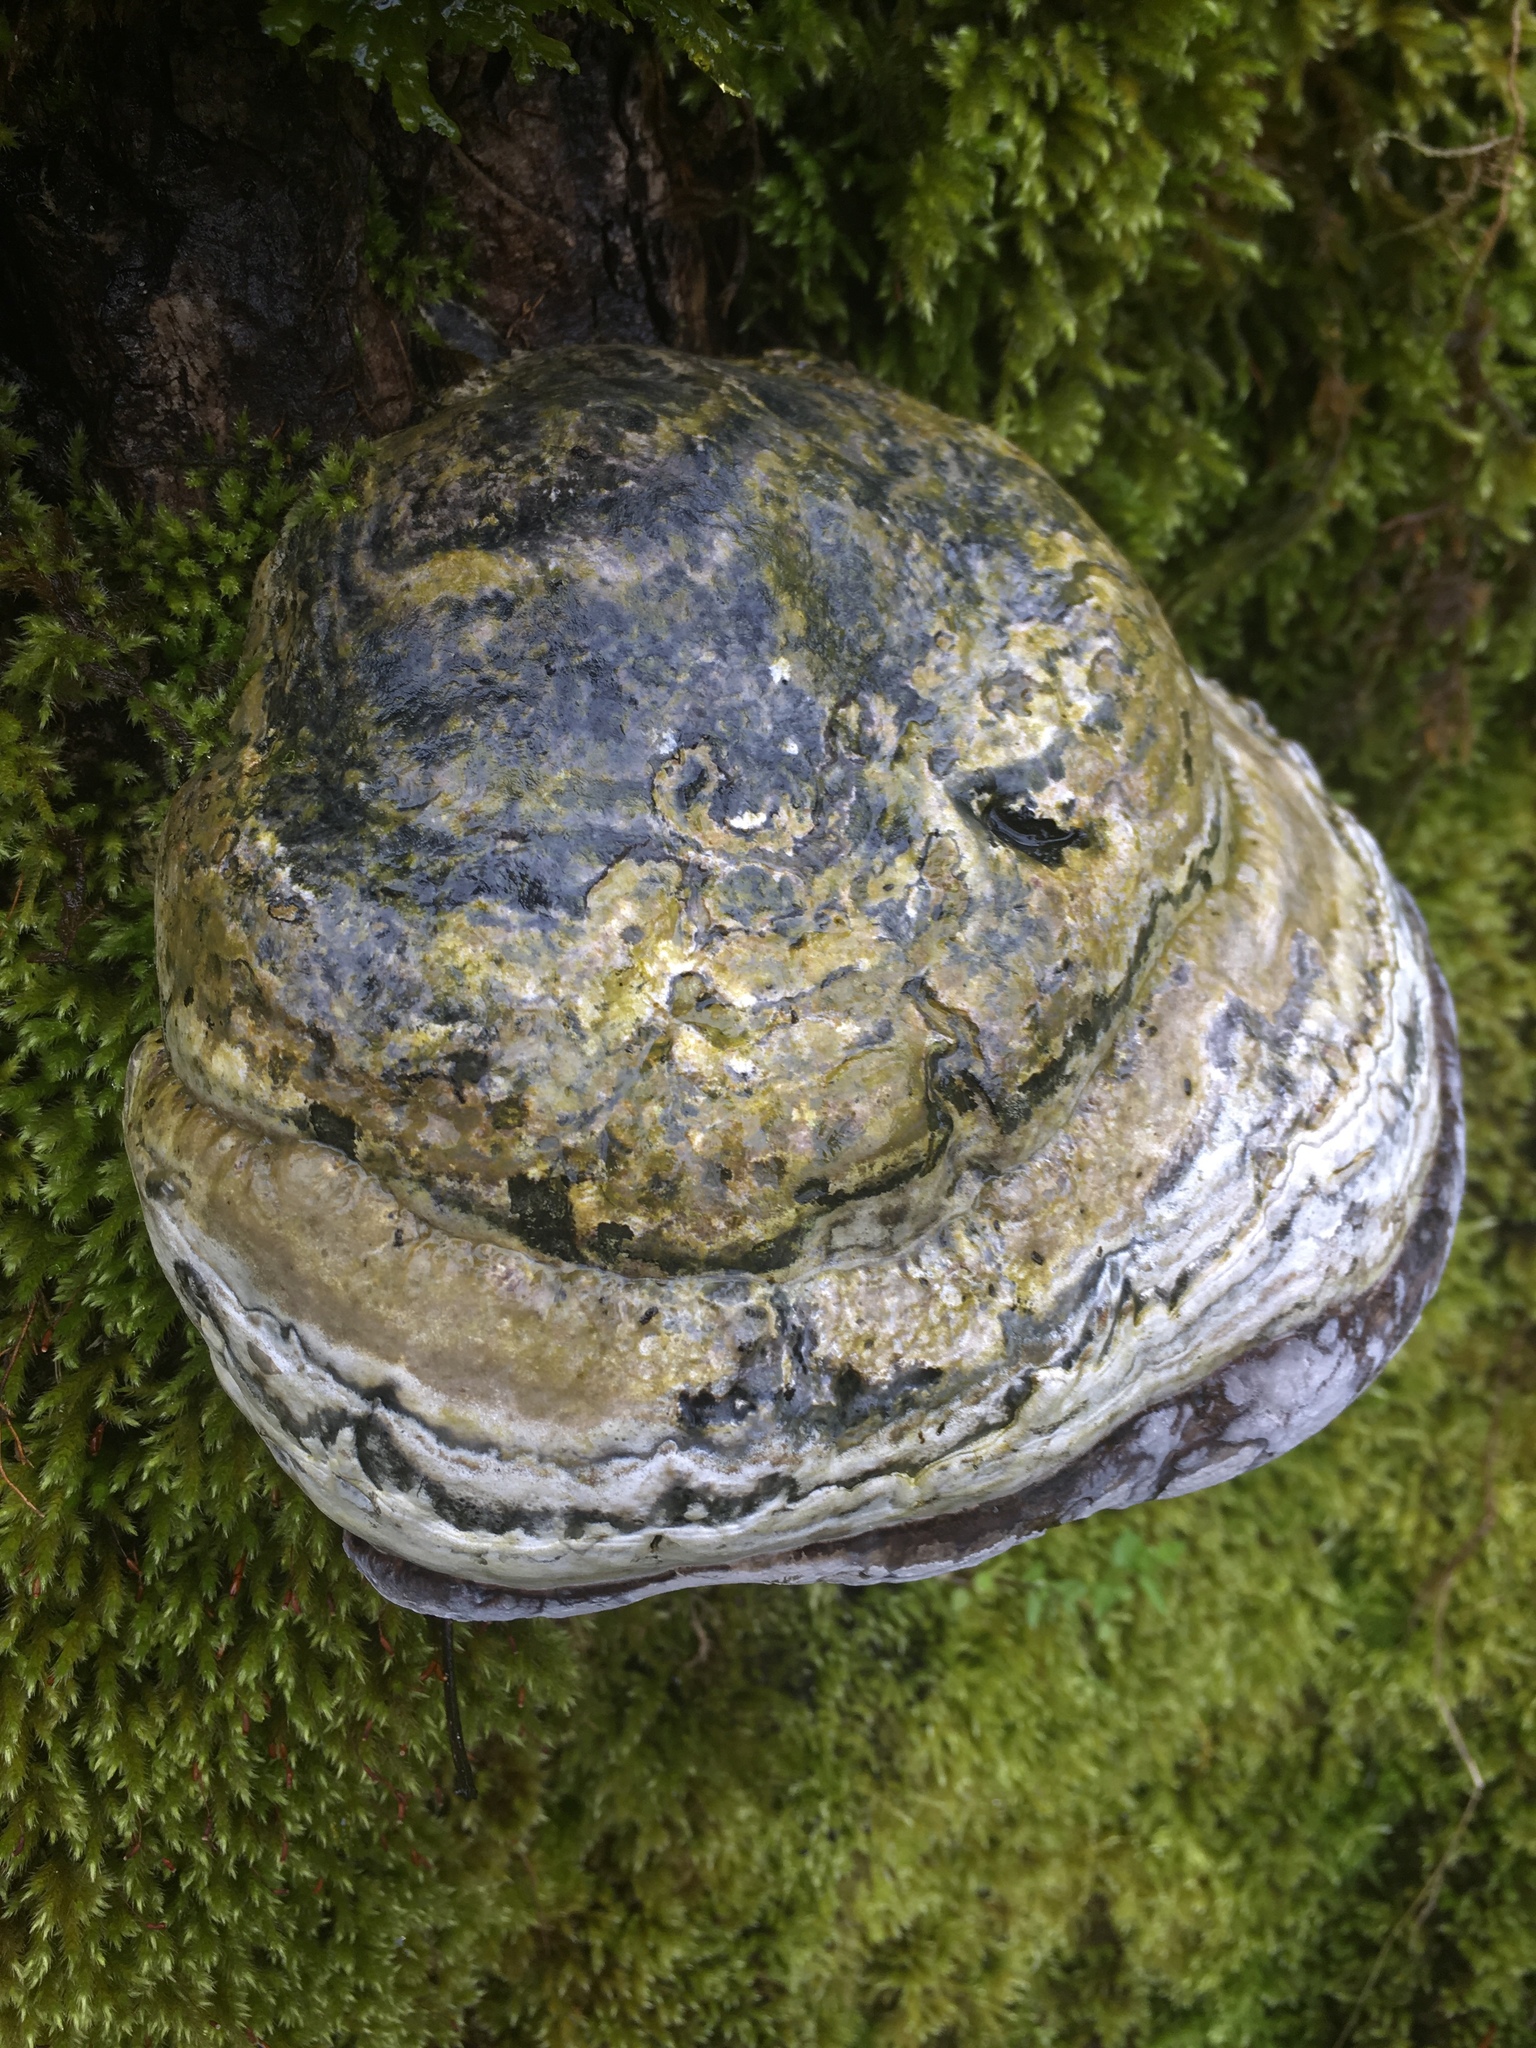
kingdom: Fungi
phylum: Basidiomycota
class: Agaricomycetes
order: Polyporales
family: Polyporaceae
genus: Fomes
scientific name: Fomes fomentarius
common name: Hoof fungus
